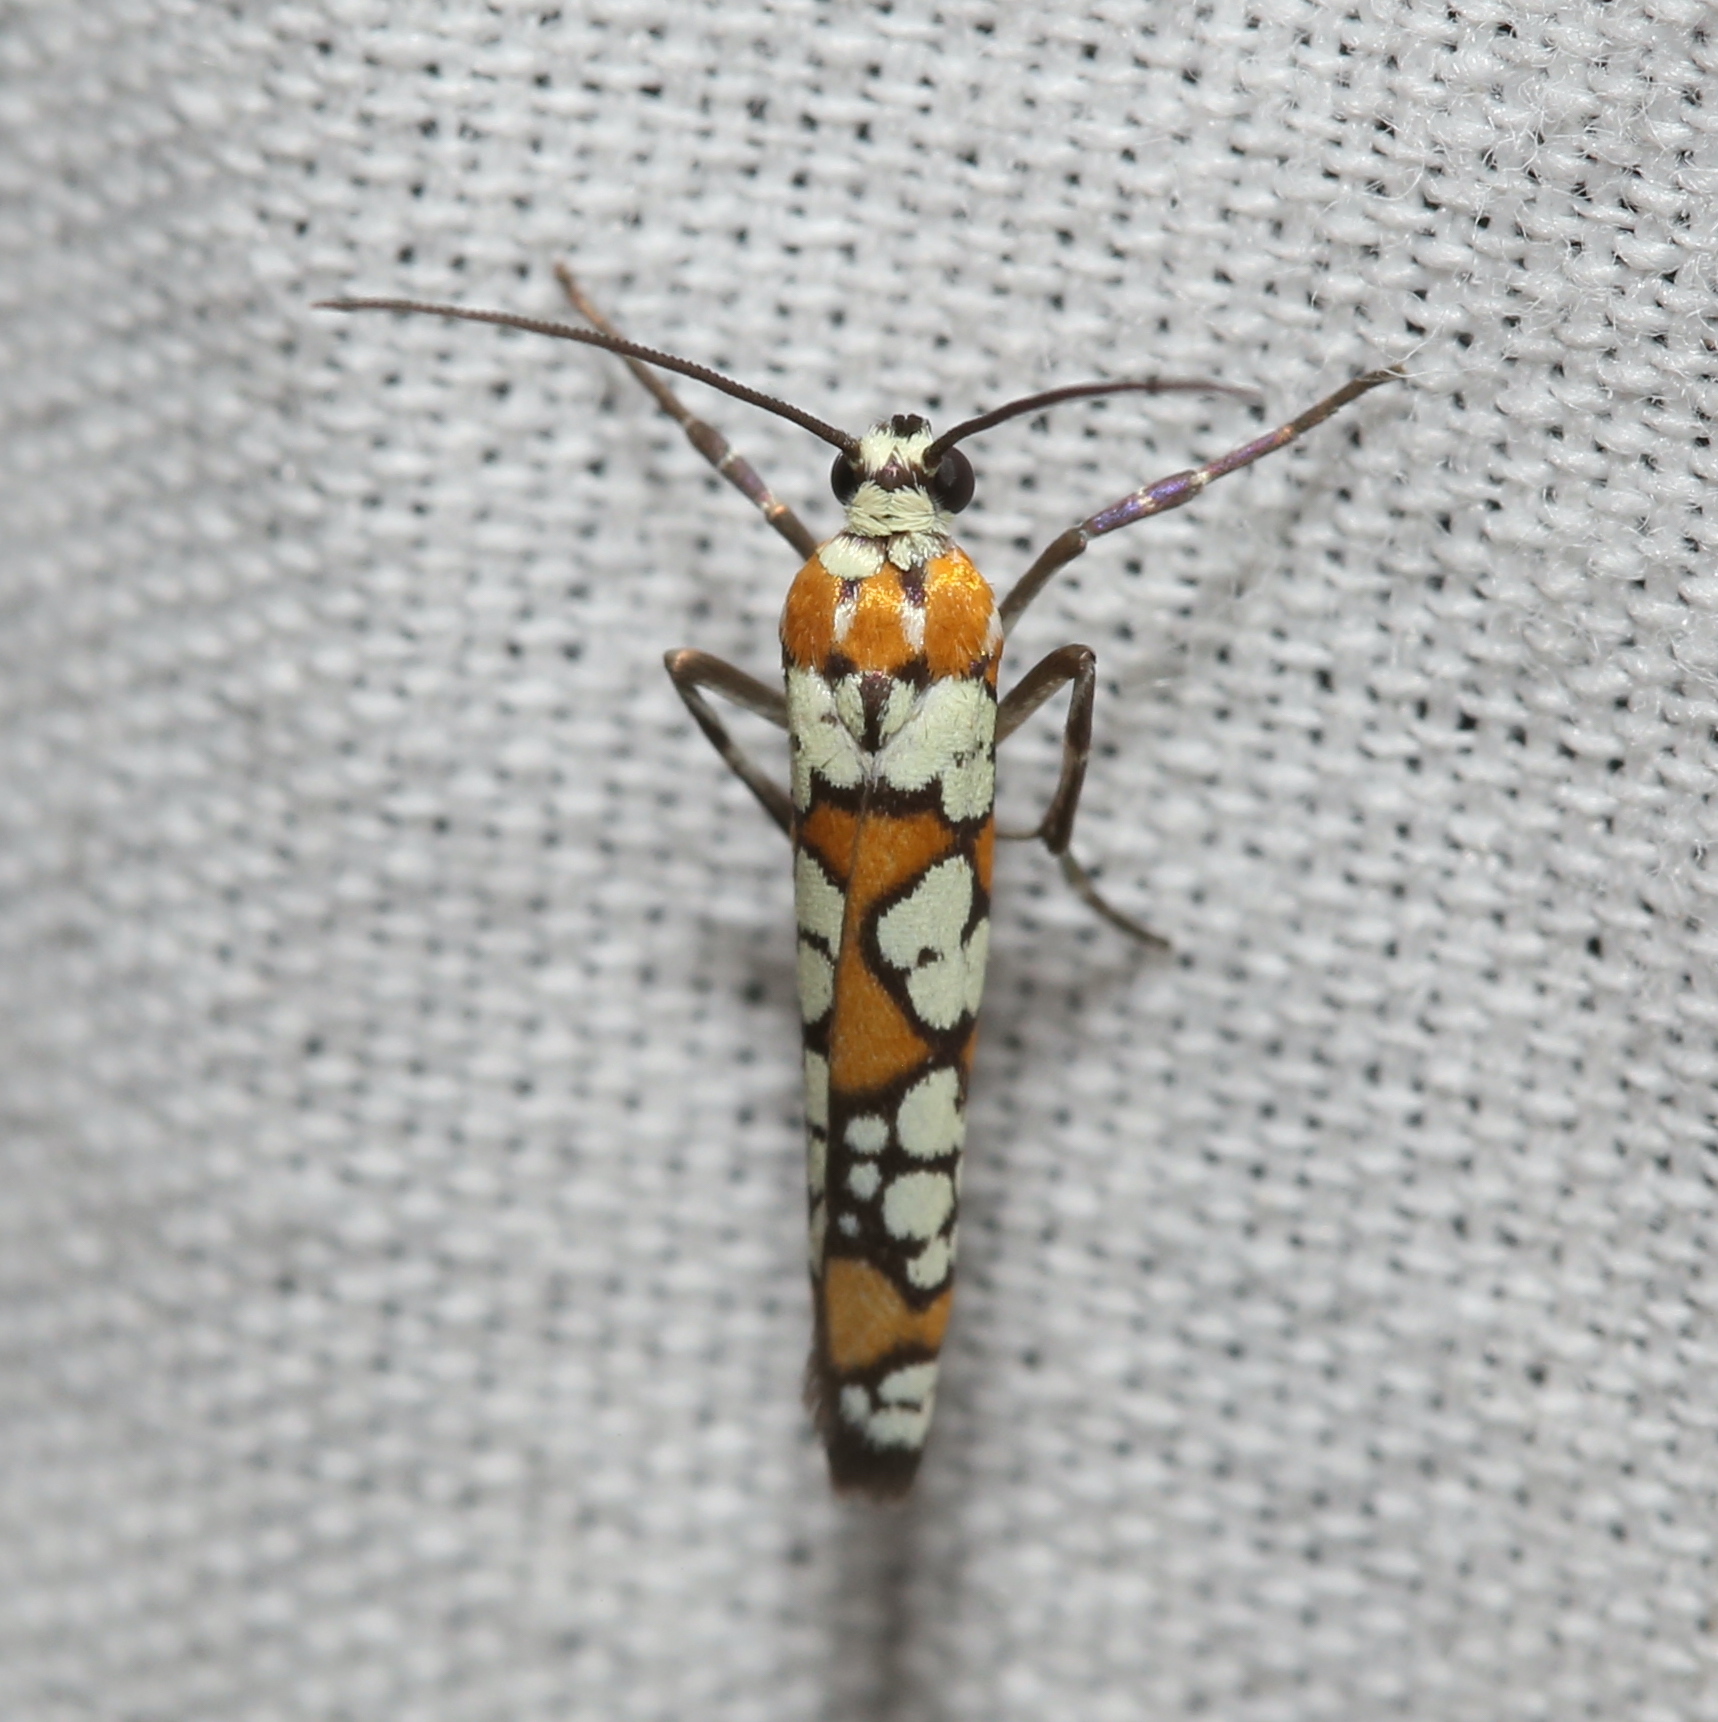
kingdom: Animalia
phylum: Arthropoda
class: Insecta
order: Lepidoptera
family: Attevidae
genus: Atteva
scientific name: Atteva punctella
